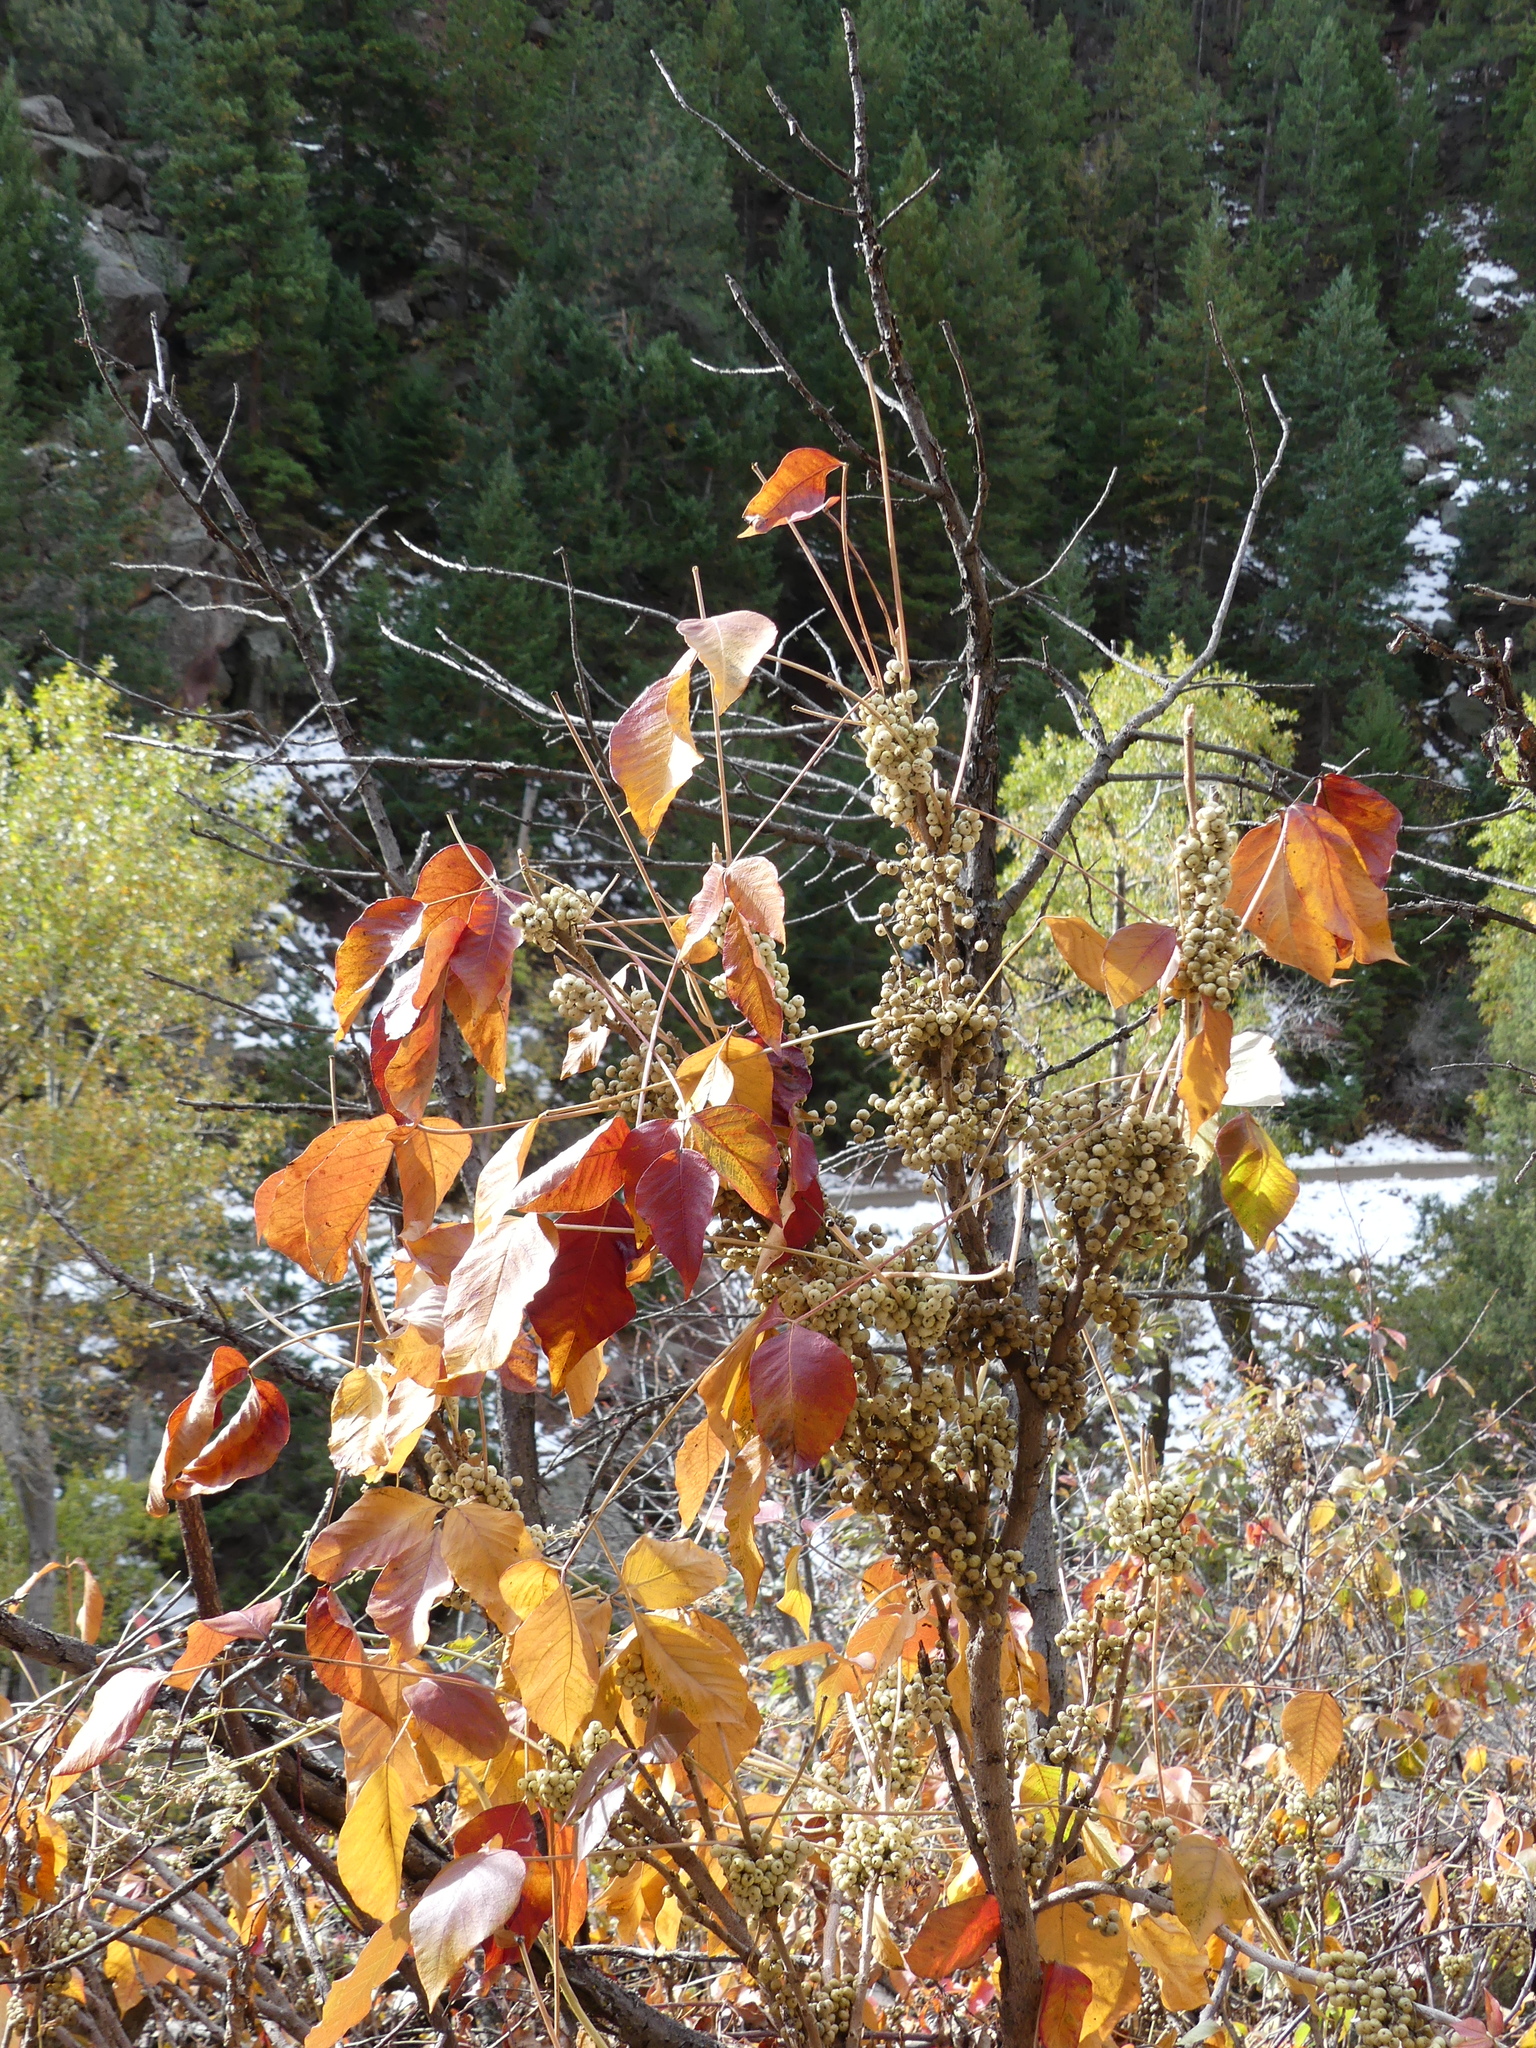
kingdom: Plantae
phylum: Tracheophyta
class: Magnoliopsida
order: Sapindales
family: Anacardiaceae
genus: Toxicodendron
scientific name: Toxicodendron rydbergii
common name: Rydberg's poison-ivy
